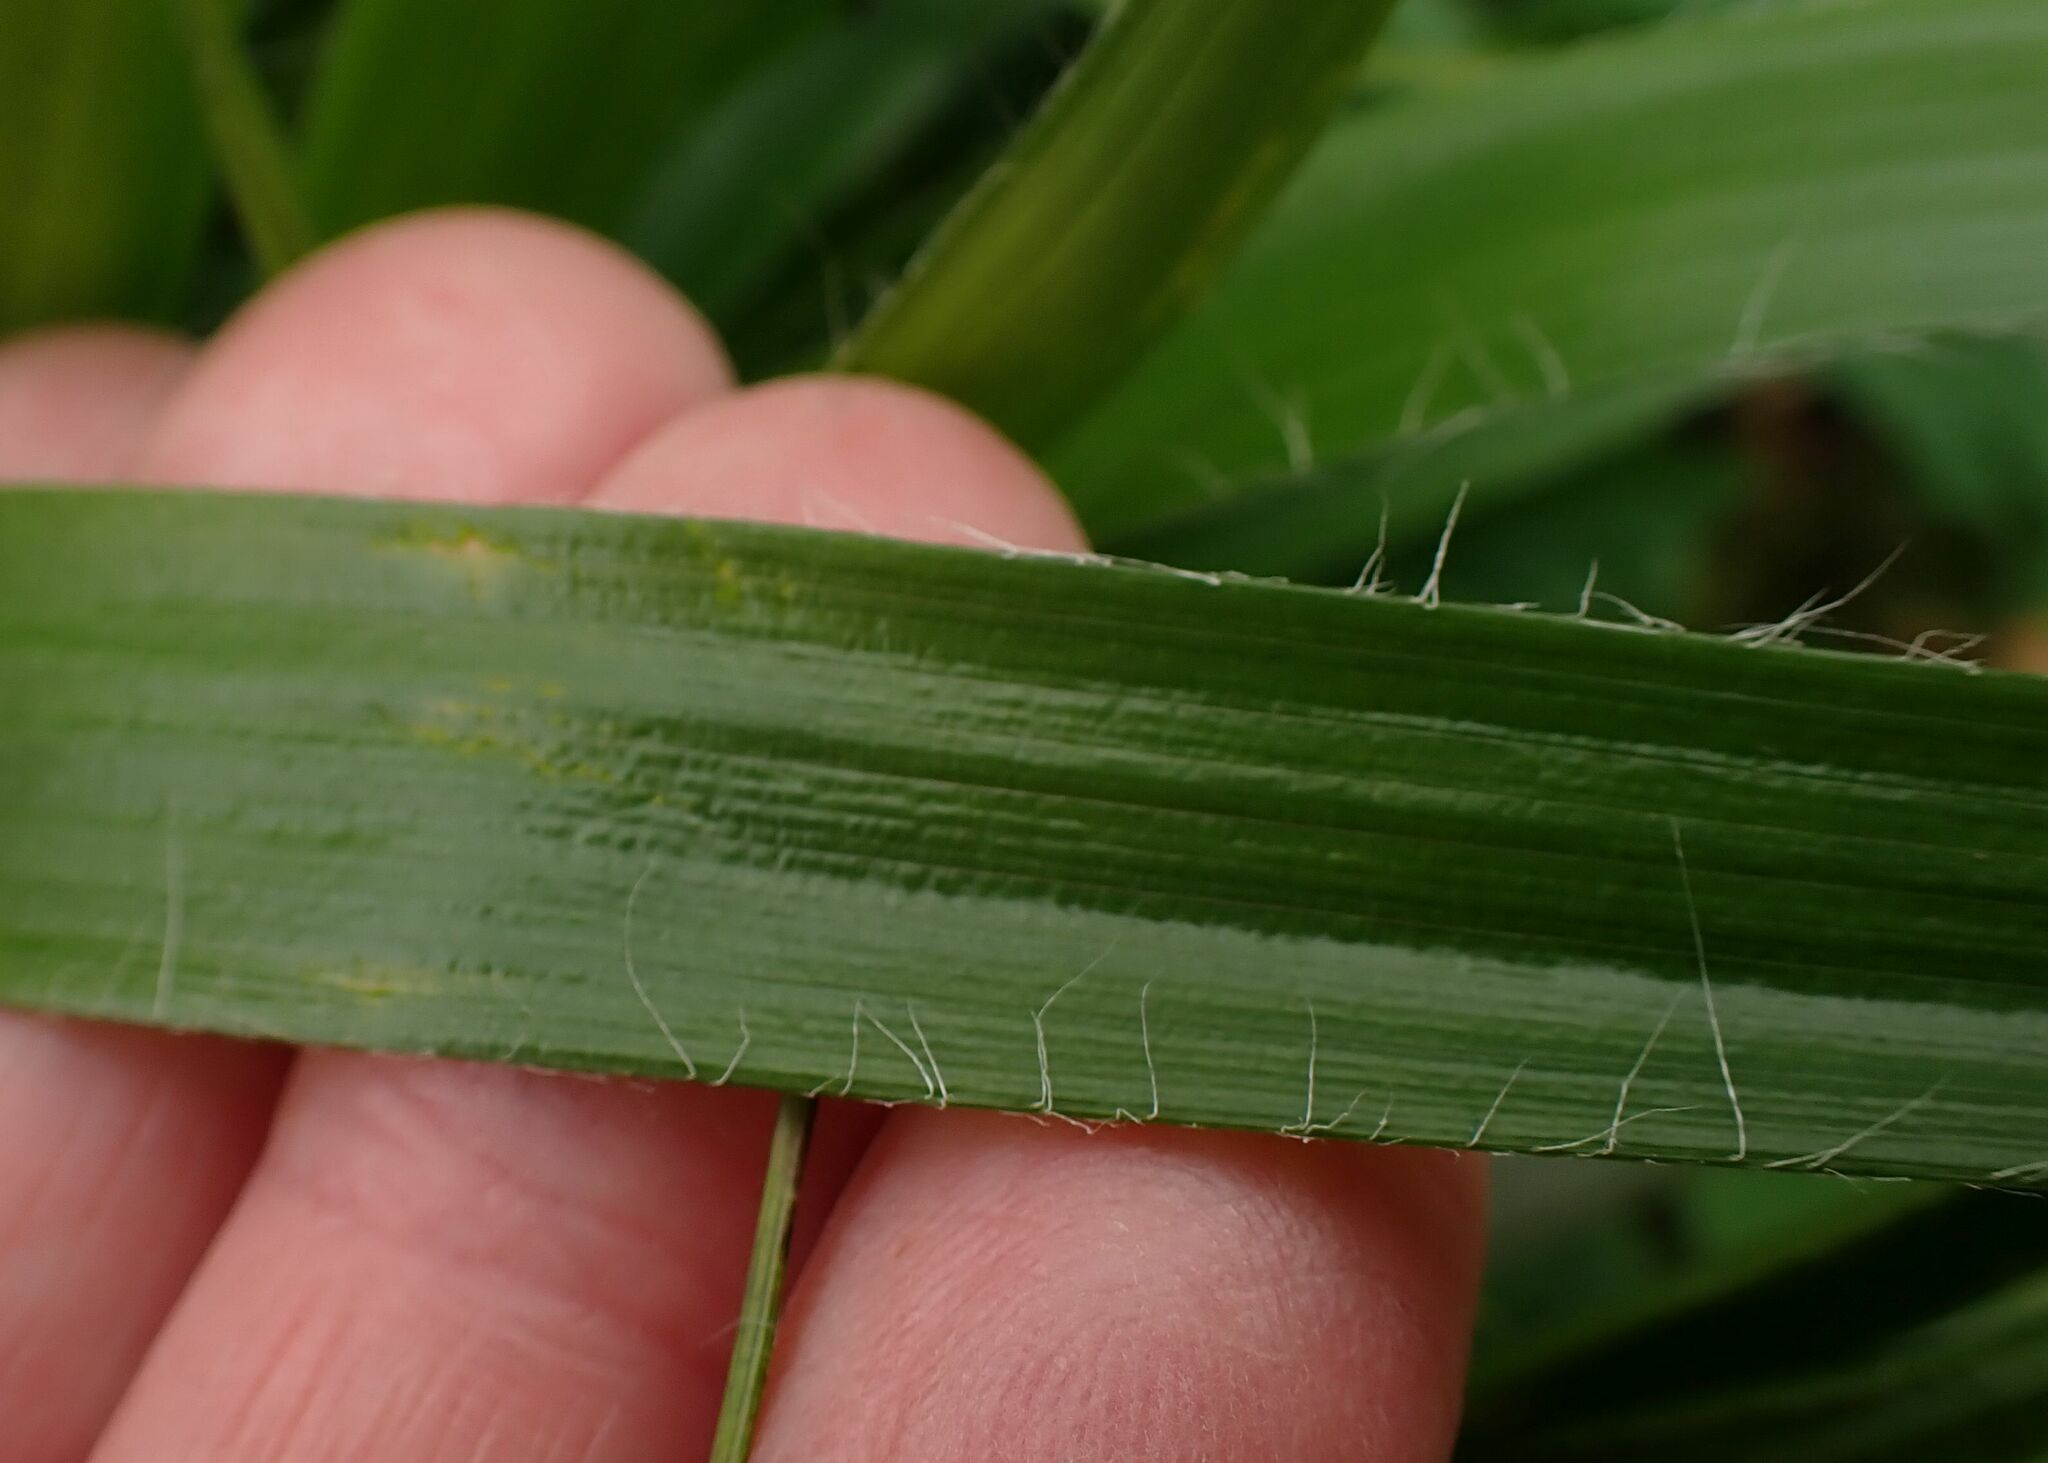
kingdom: Plantae
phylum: Tracheophyta
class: Liliopsida
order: Poales
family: Juncaceae
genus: Luzula
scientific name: Luzula sylvatica
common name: Great wood-rush
